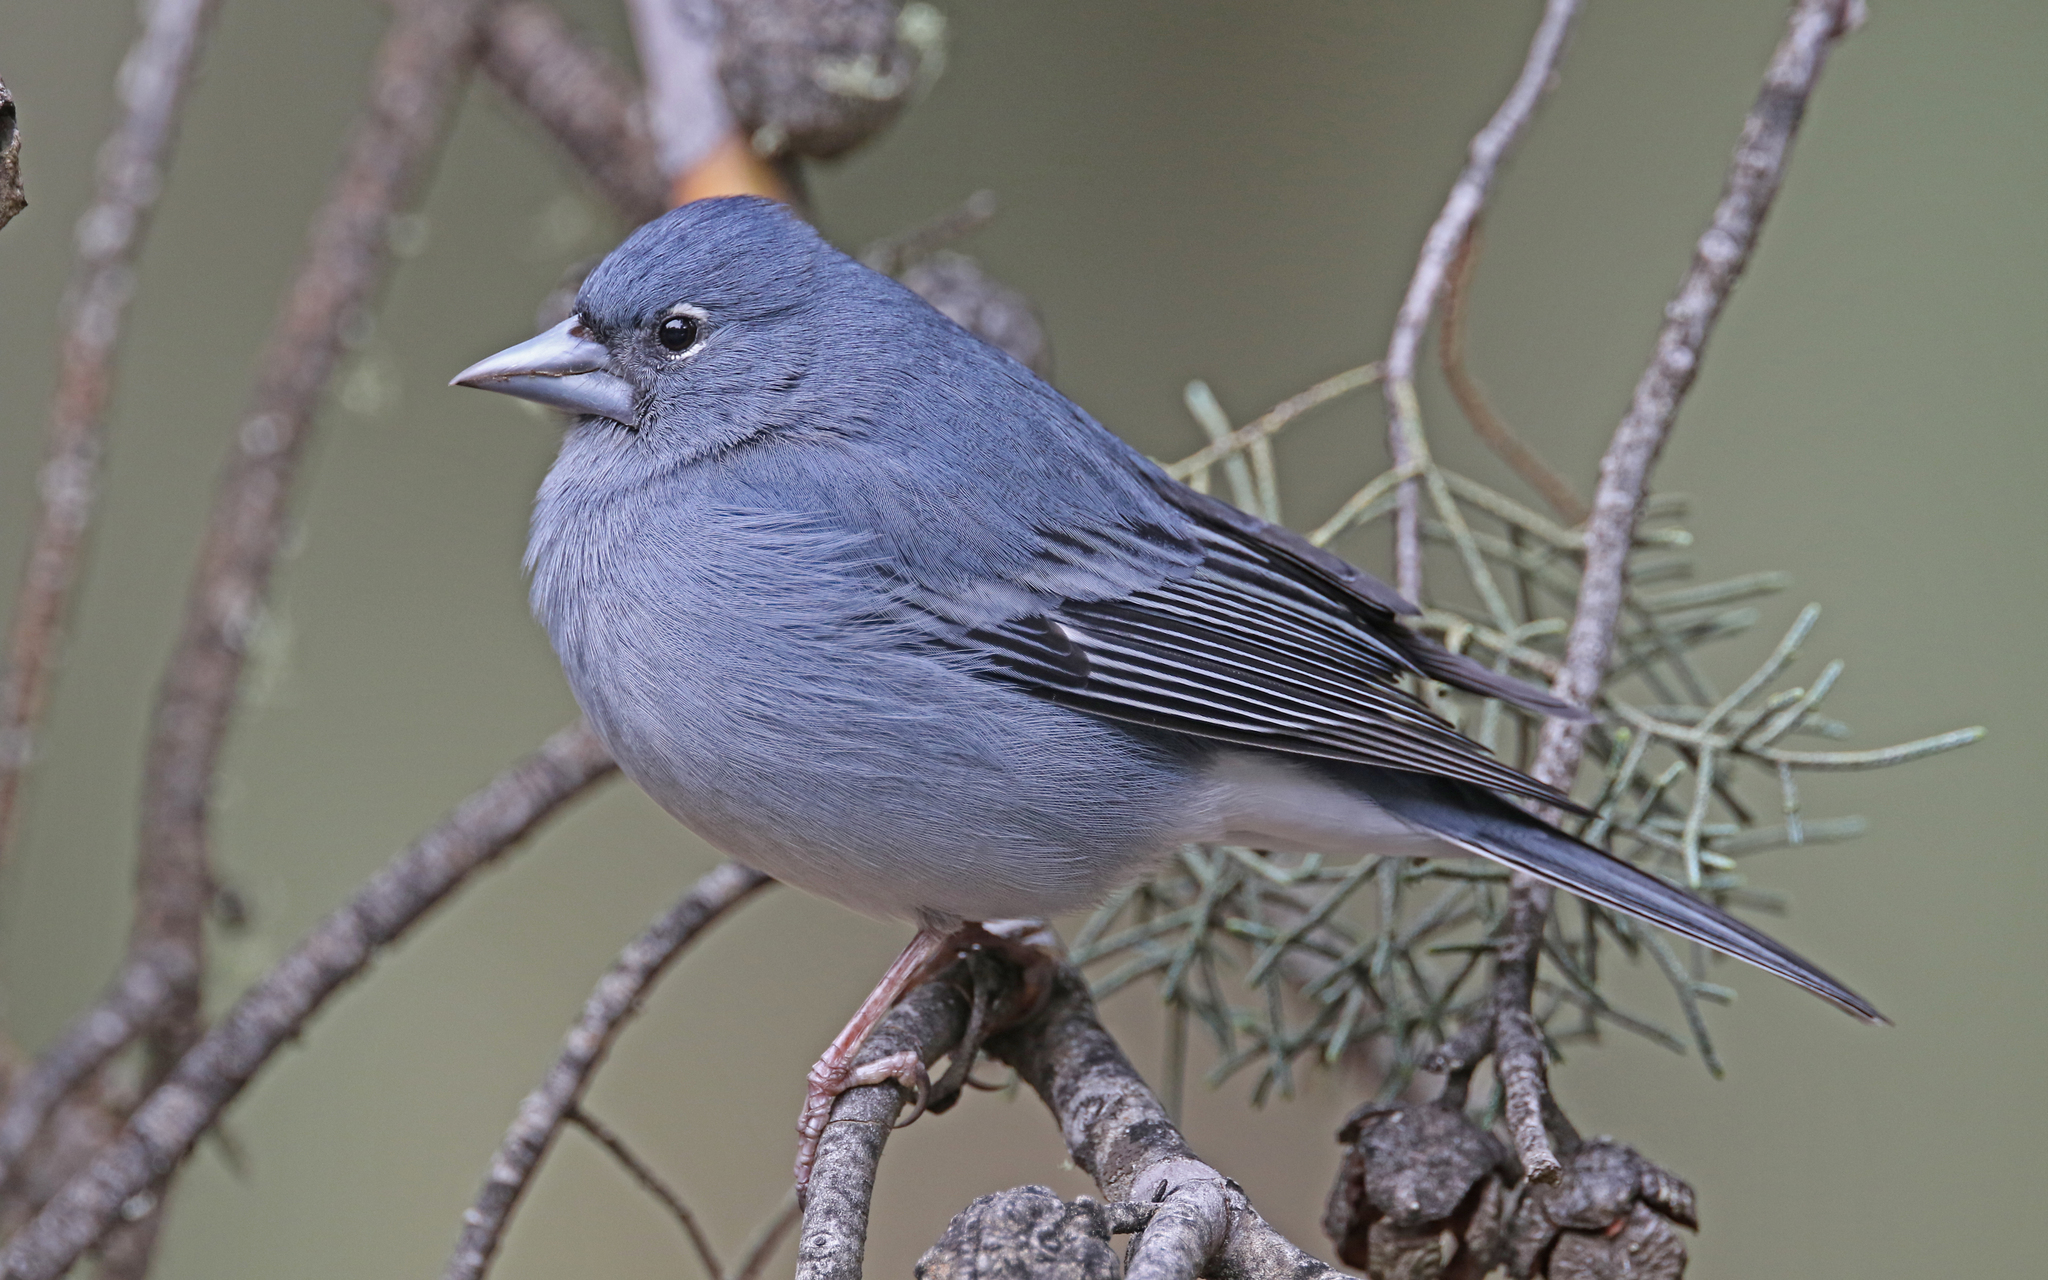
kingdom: Animalia
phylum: Chordata
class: Aves
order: Passeriformes
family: Fringillidae
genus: Fringilla
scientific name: Fringilla teydea
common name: Blue chaffinch
